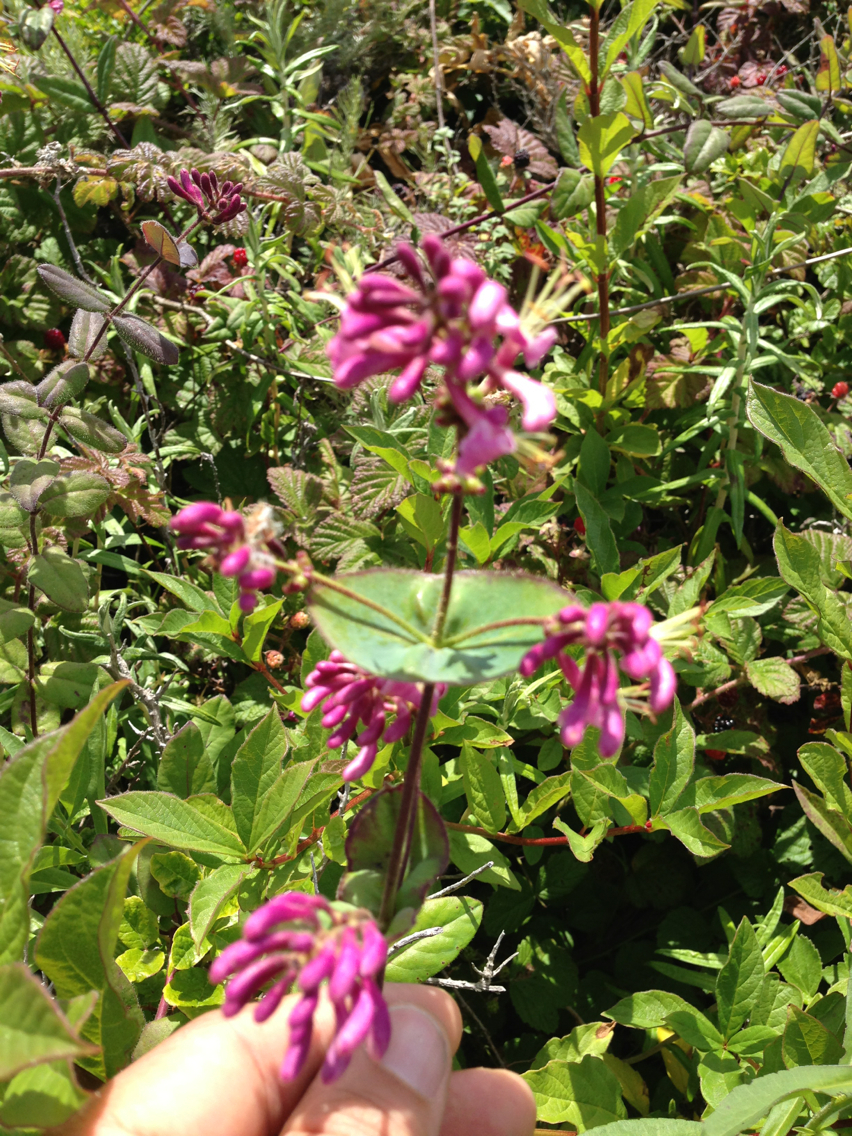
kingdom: Plantae
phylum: Tracheophyta
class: Magnoliopsida
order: Dipsacales
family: Caprifoliaceae
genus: Lonicera
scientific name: Lonicera hispidula
